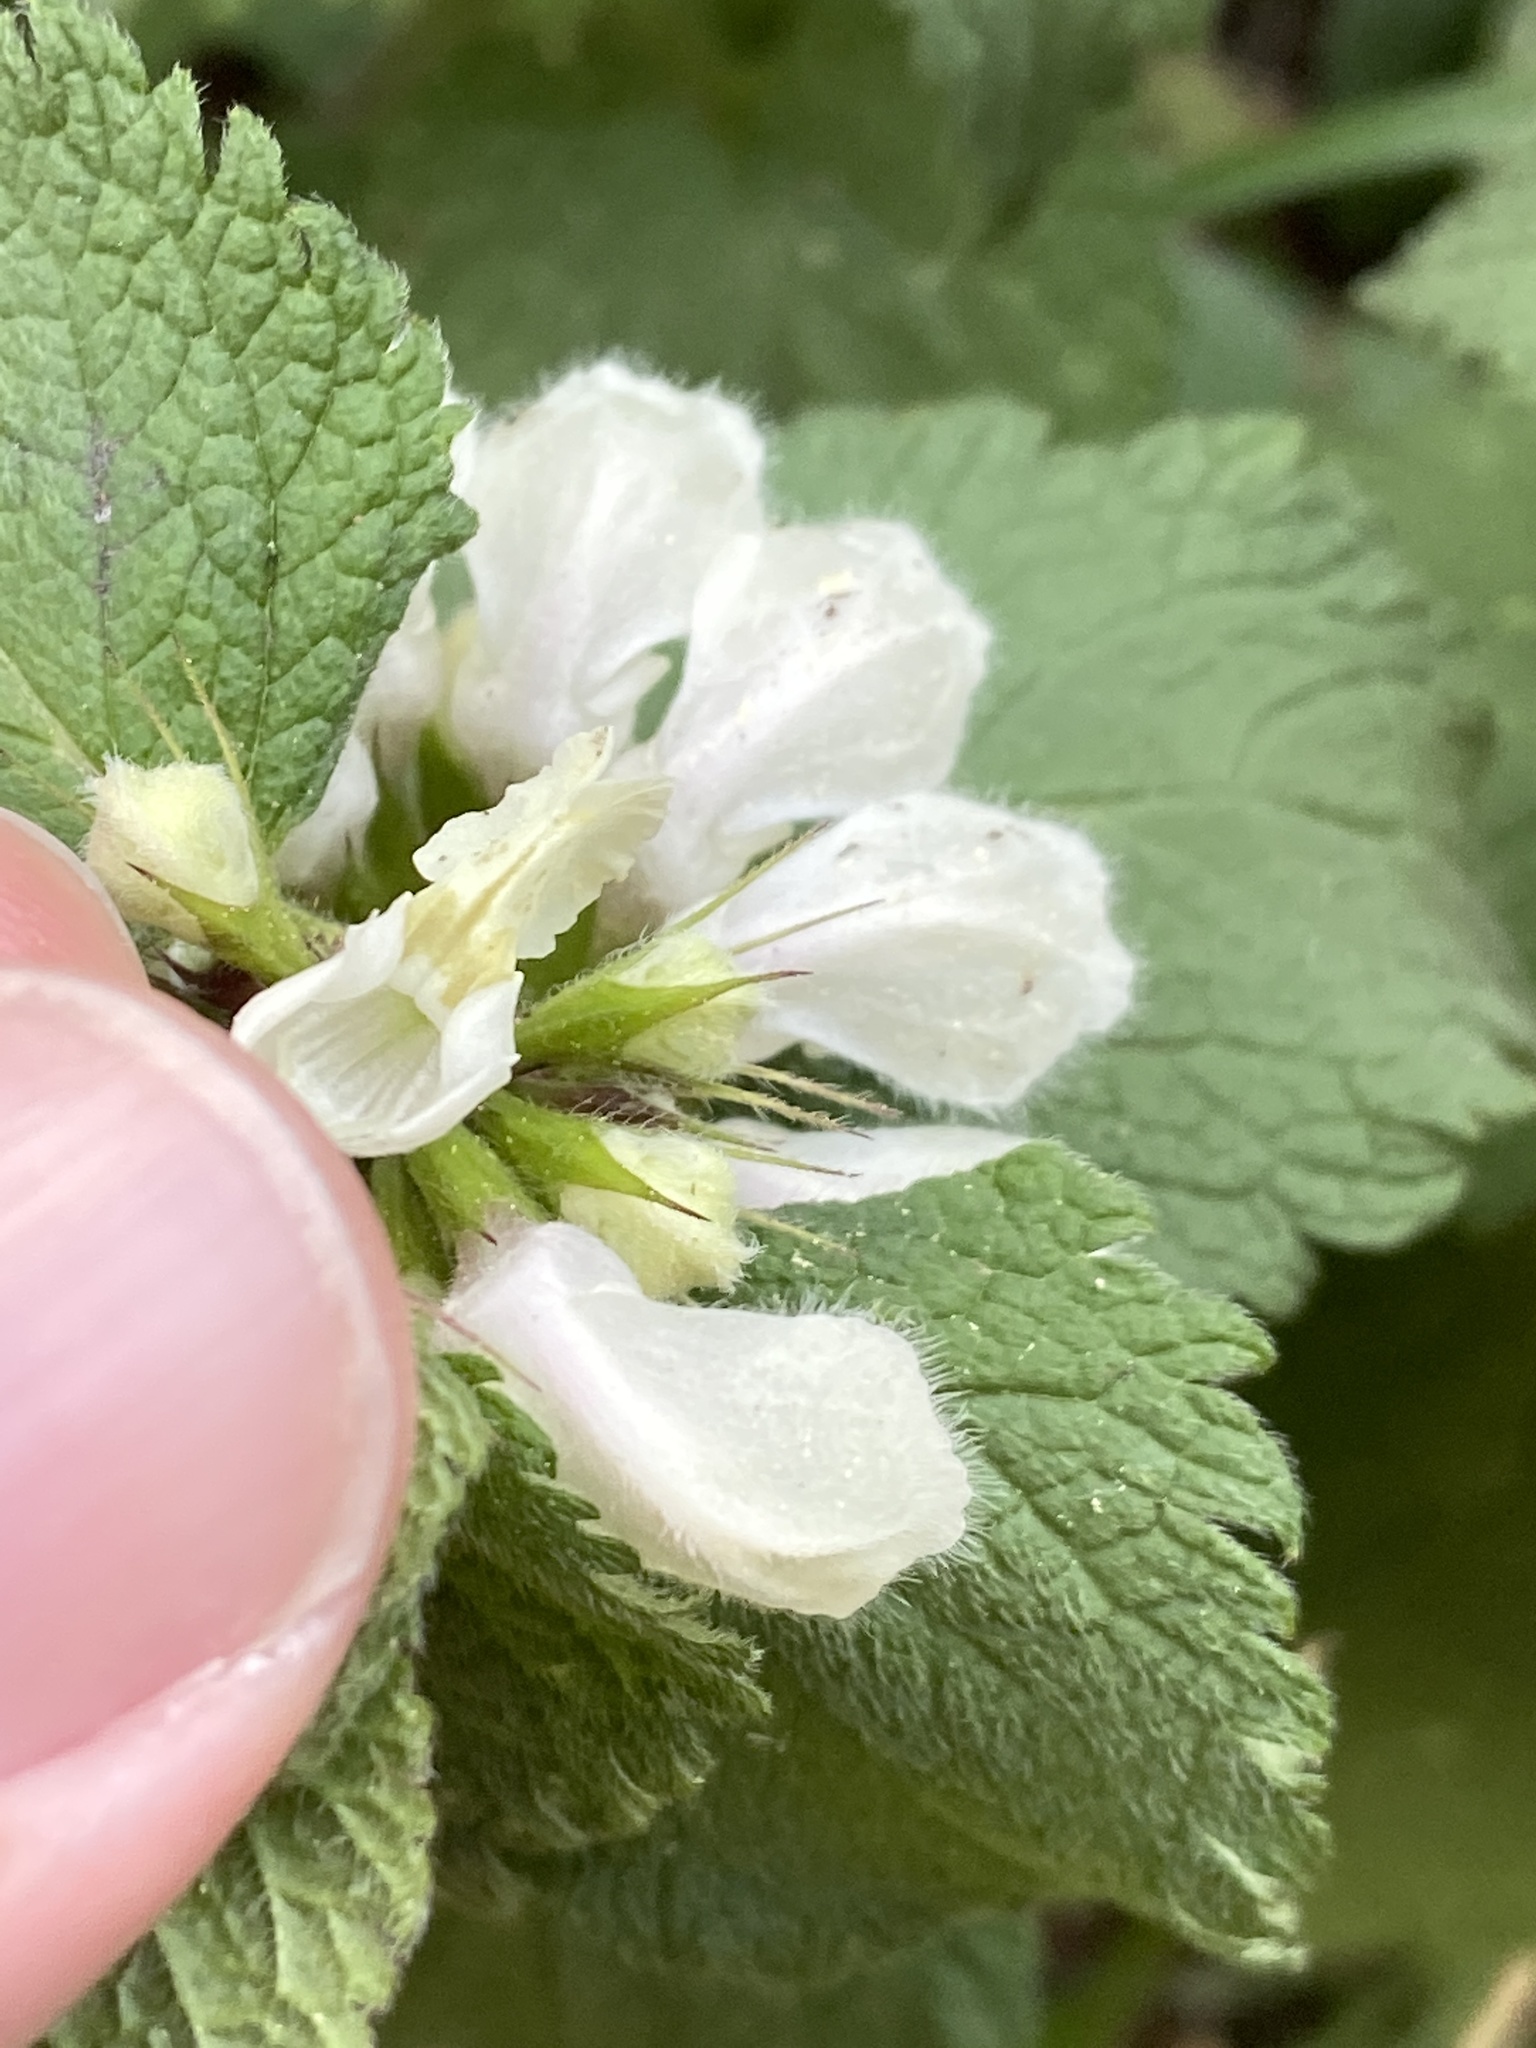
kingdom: Plantae
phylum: Tracheophyta
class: Magnoliopsida
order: Lamiales
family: Lamiaceae
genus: Lamium
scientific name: Lamium album
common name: White dead-nettle
